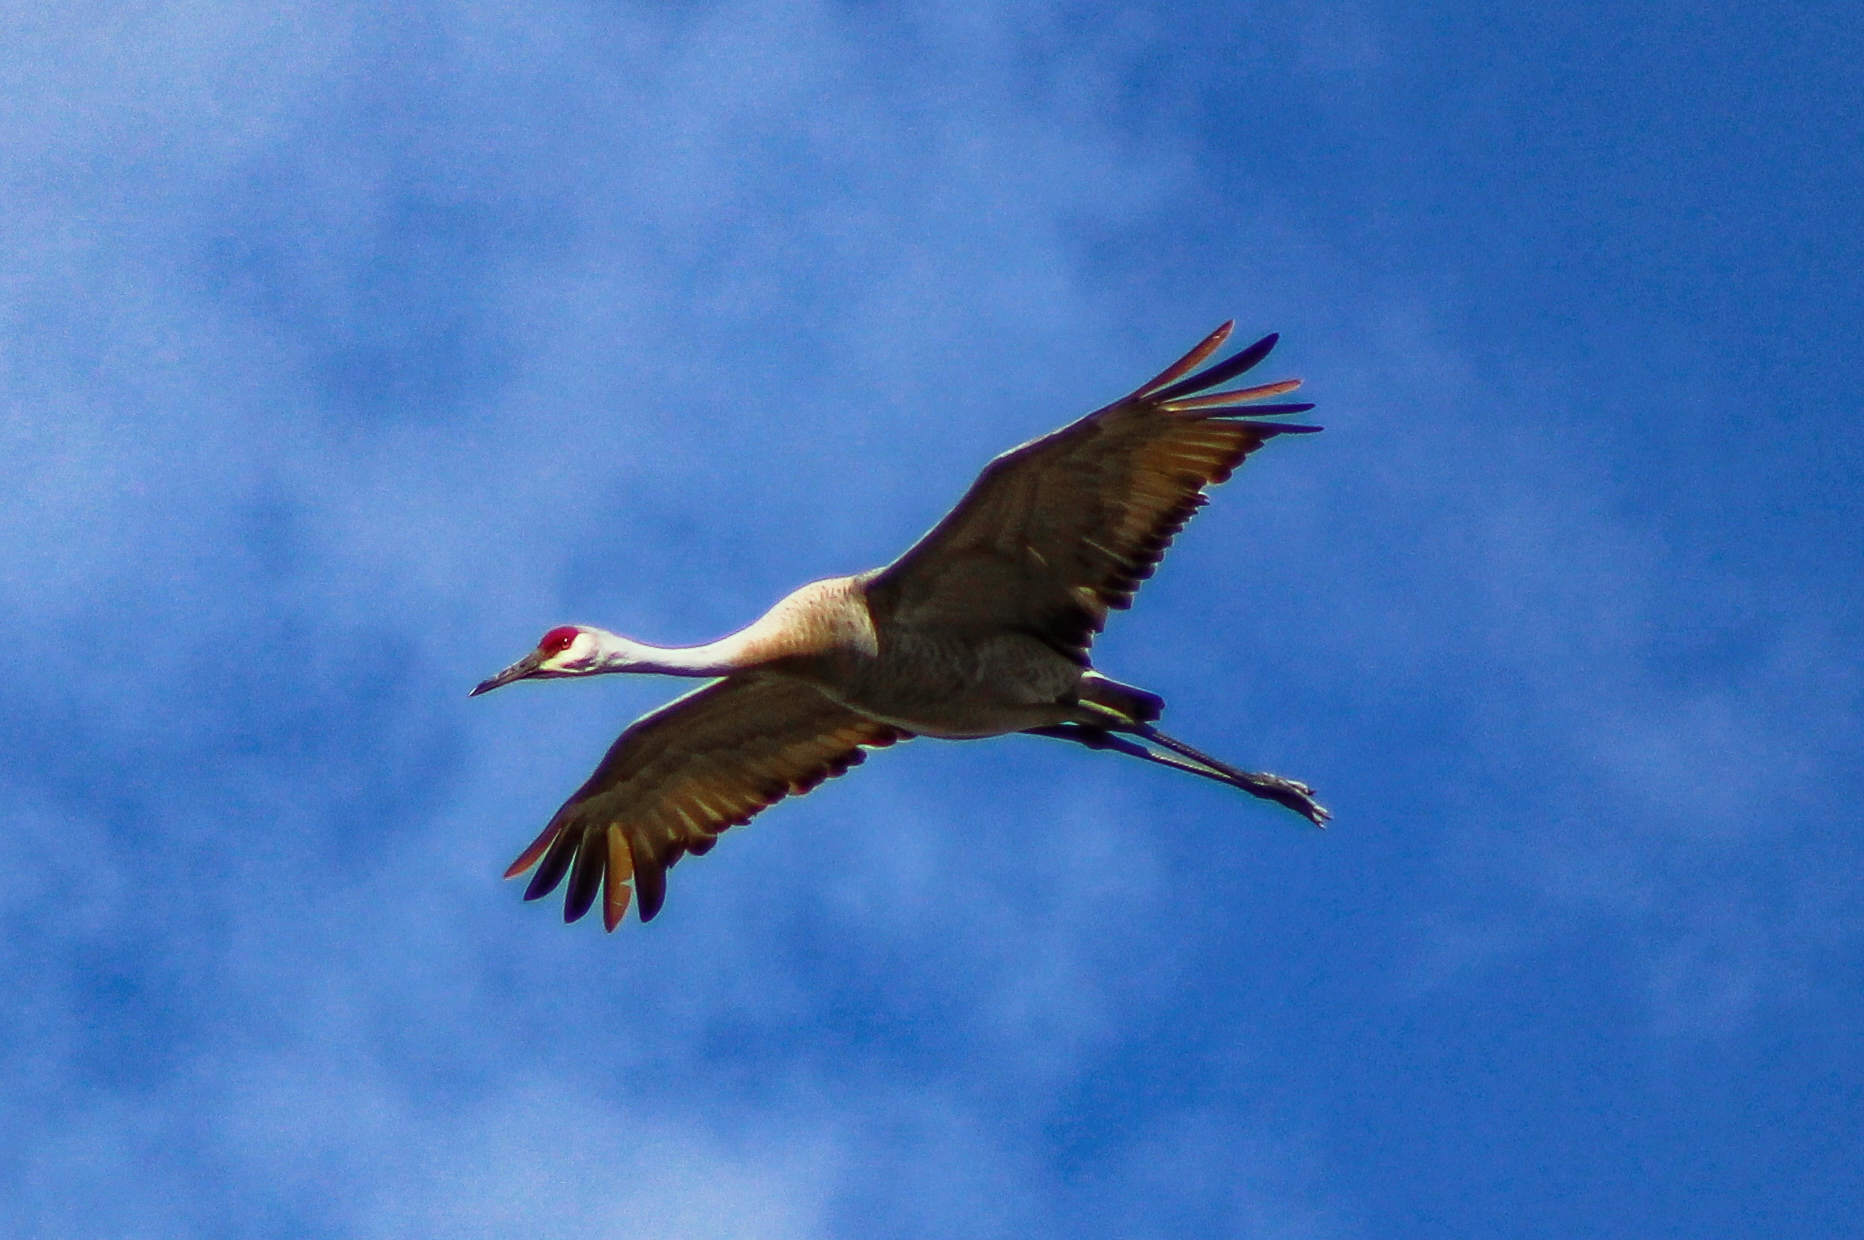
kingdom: Animalia
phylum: Chordata
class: Aves
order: Gruiformes
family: Gruidae
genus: Grus
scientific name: Grus canadensis
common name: Sandhill crane
